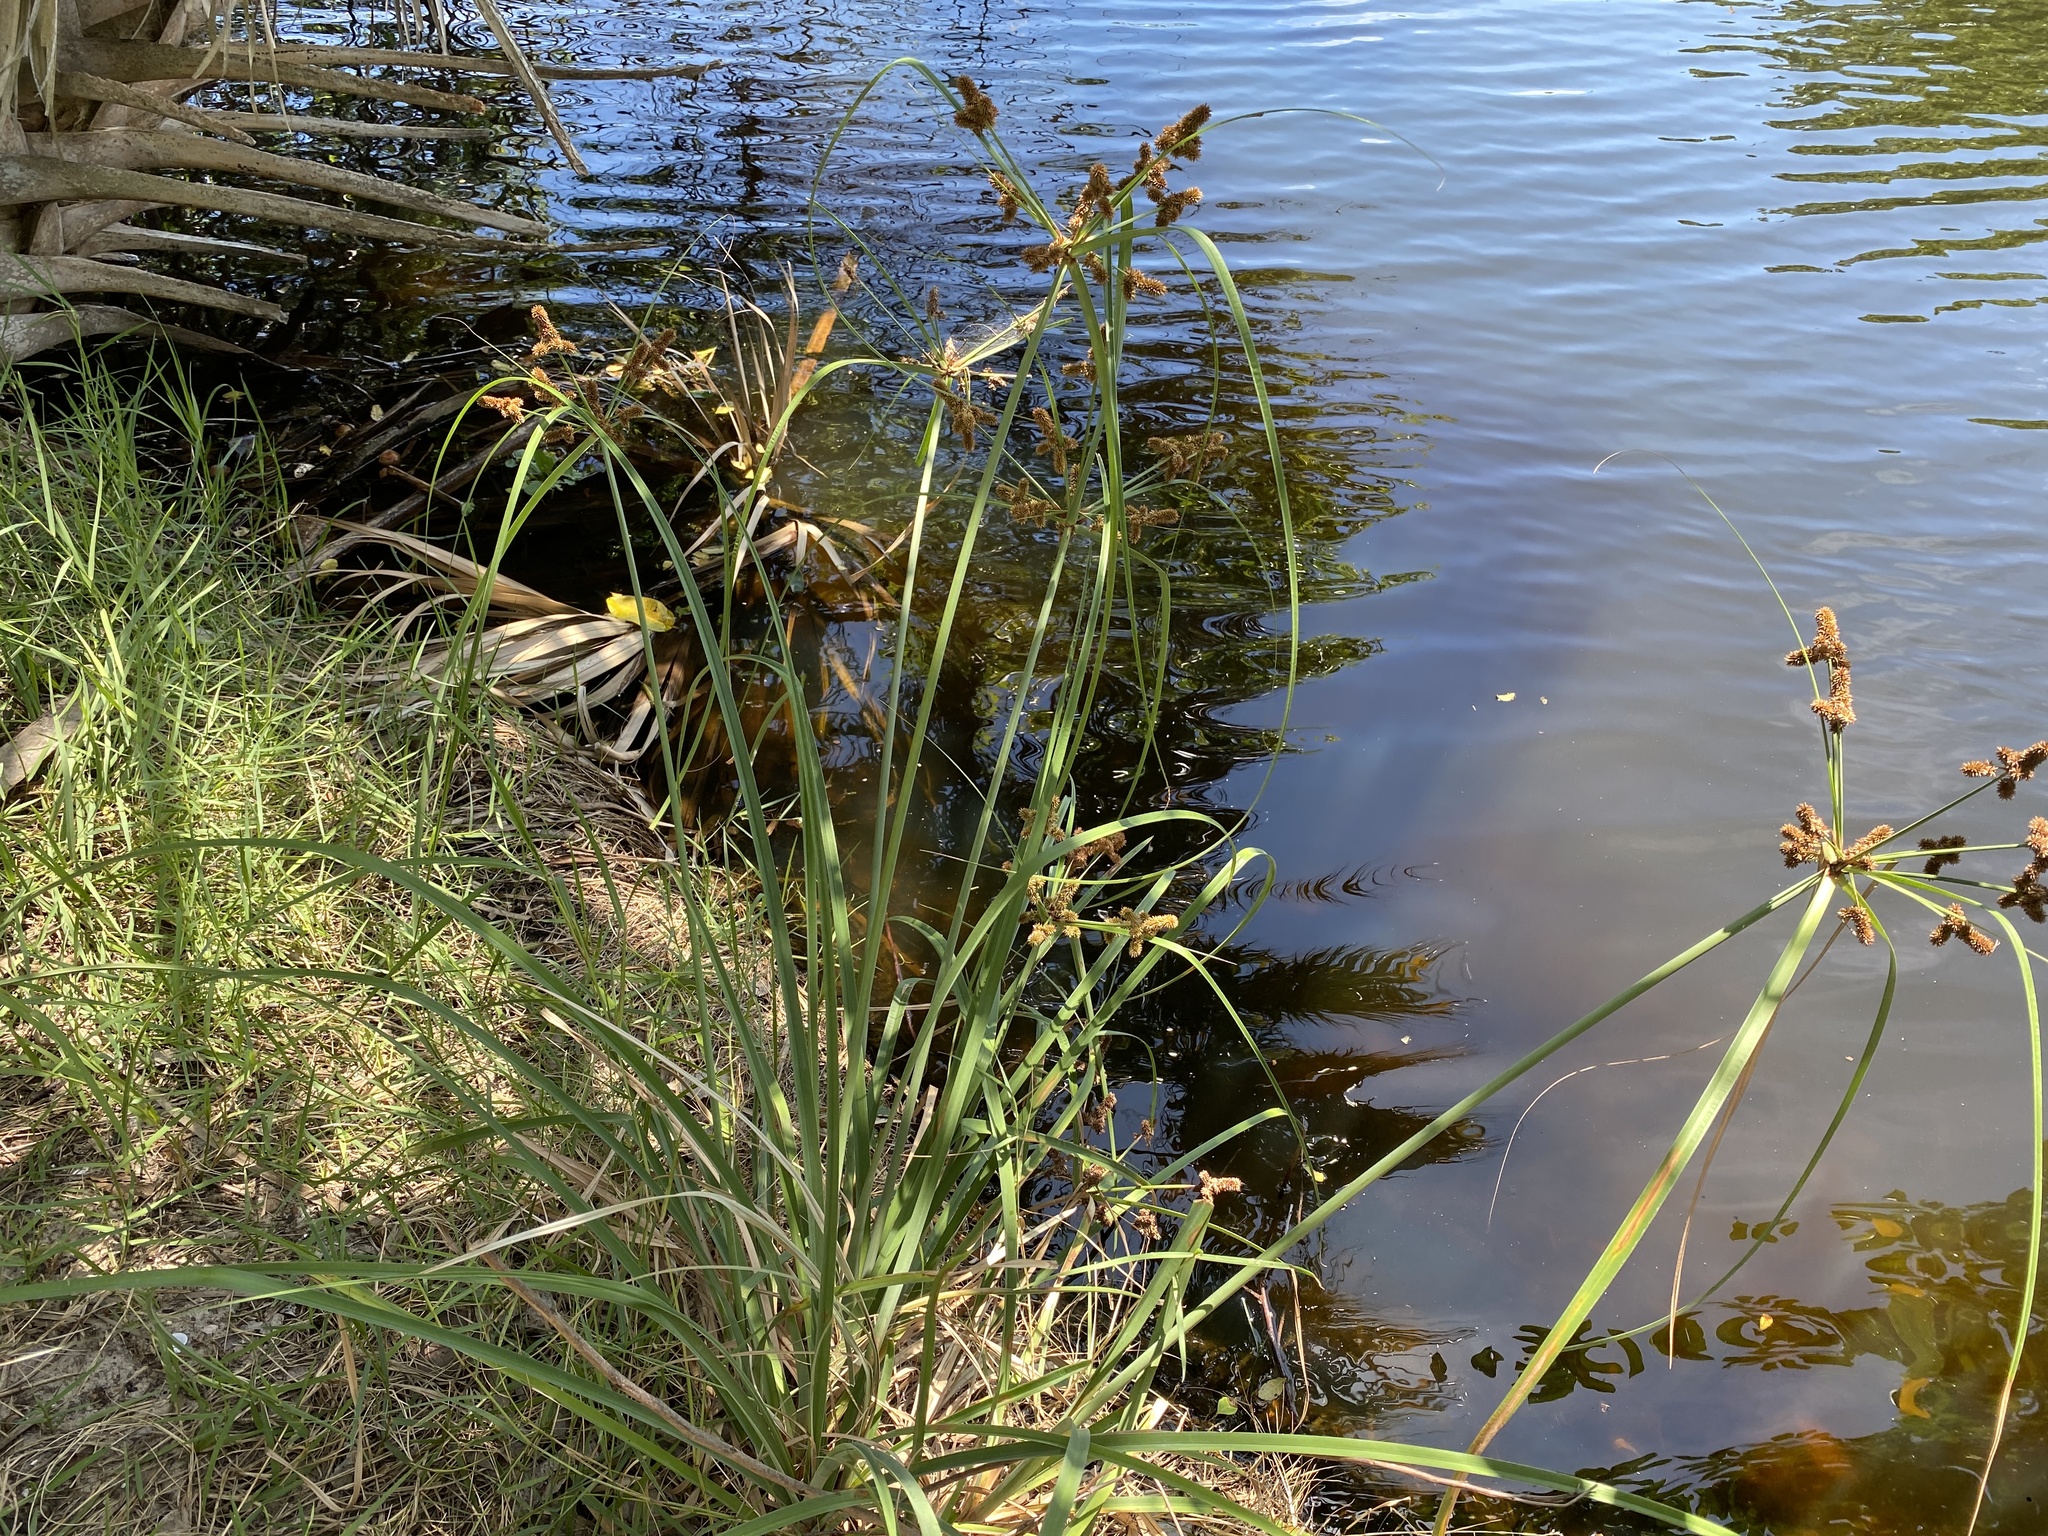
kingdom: Plantae
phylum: Tracheophyta
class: Liliopsida
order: Poales
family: Cyperaceae
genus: Cyperus
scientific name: Cyperus ligularis
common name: Swamp flat sedge
